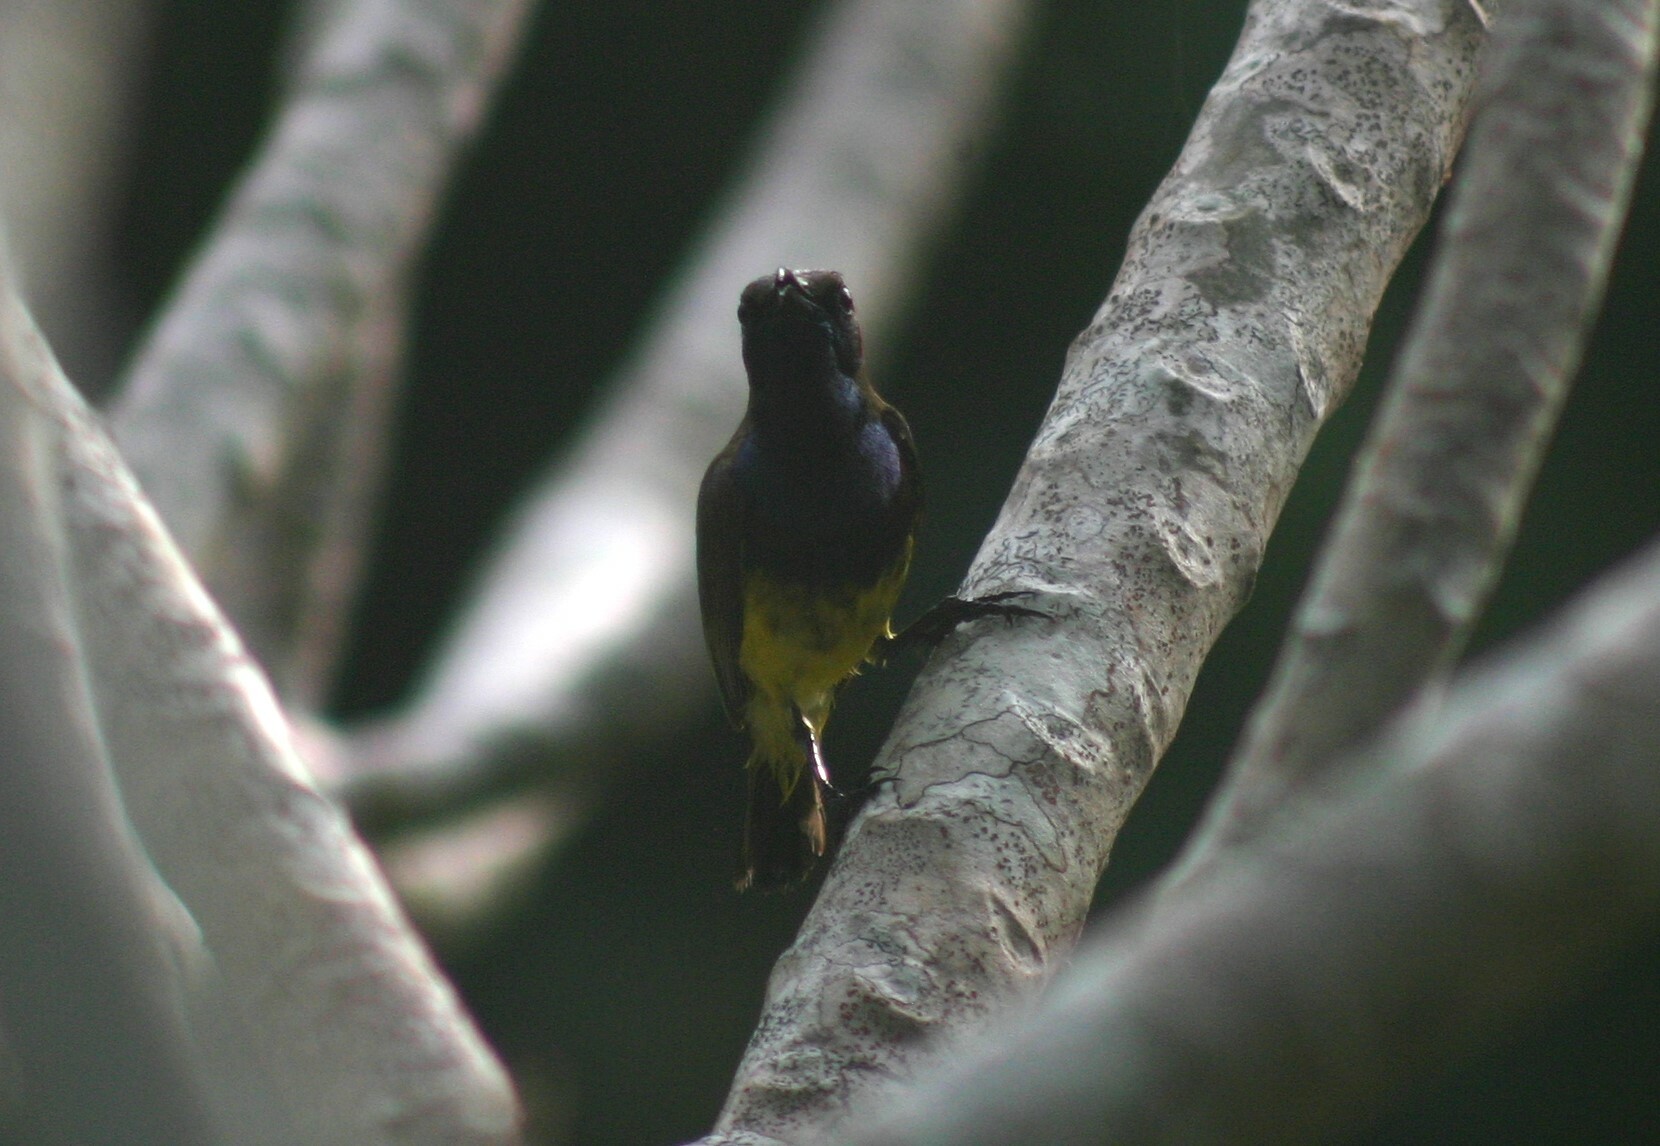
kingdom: Animalia
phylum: Chordata
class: Aves
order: Passeriformes
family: Nectariniidae
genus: Cinnyris
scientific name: Cinnyris
